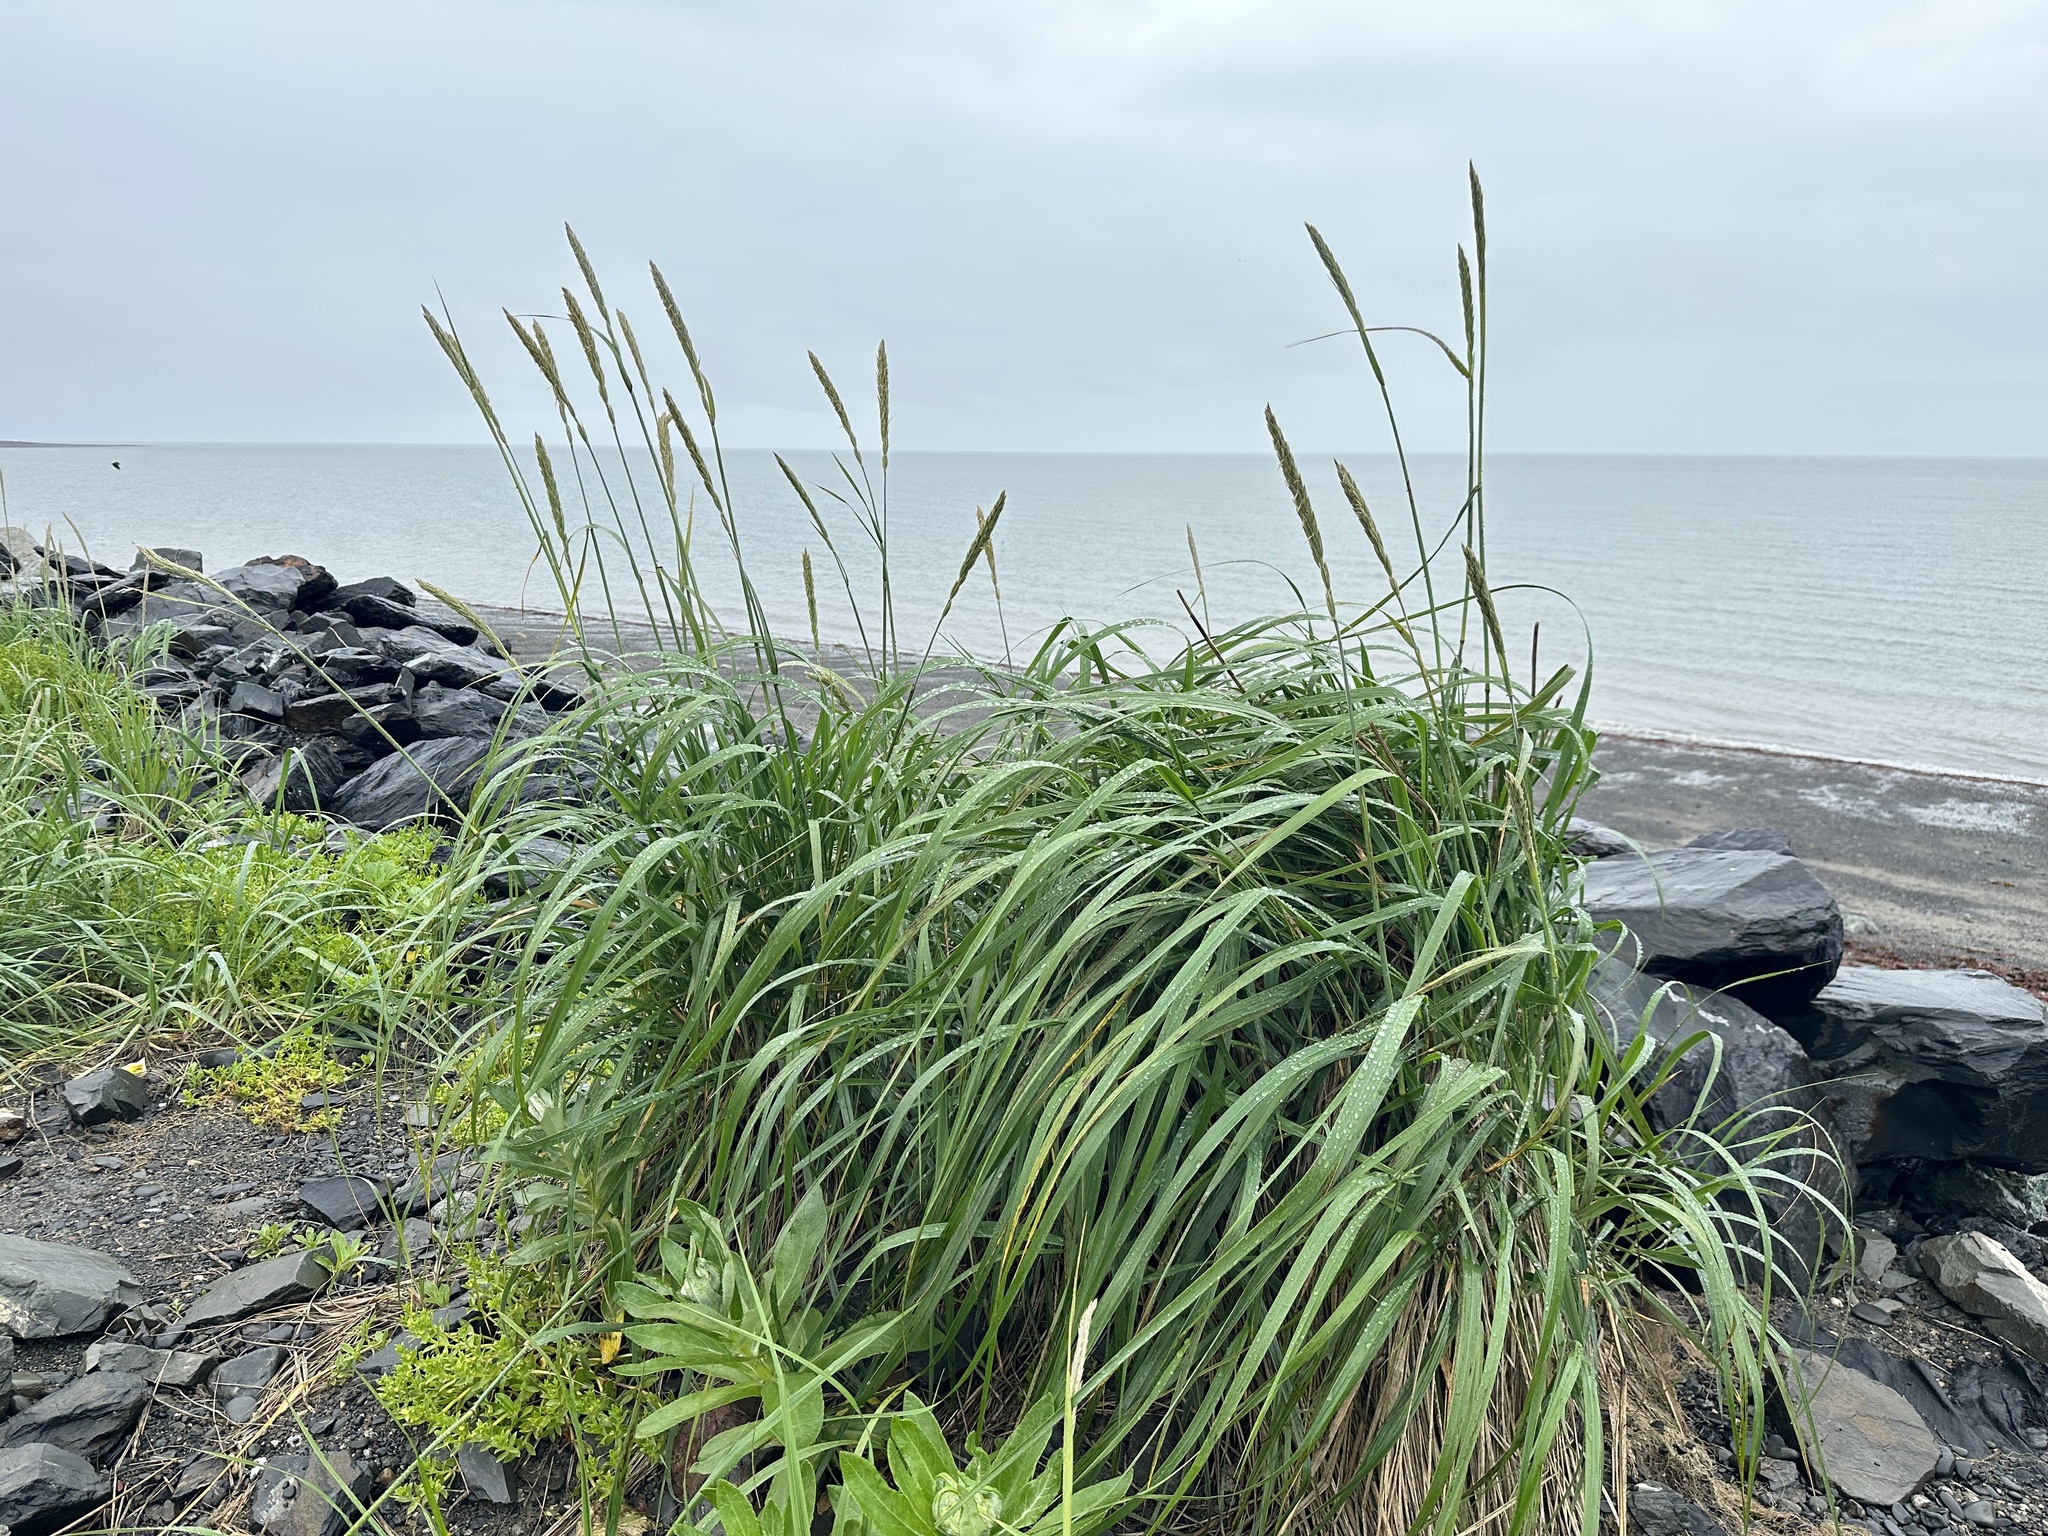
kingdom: Plantae
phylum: Tracheophyta
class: Liliopsida
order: Poales
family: Poaceae
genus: Leymus
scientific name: Leymus mollis
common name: American dune grass
